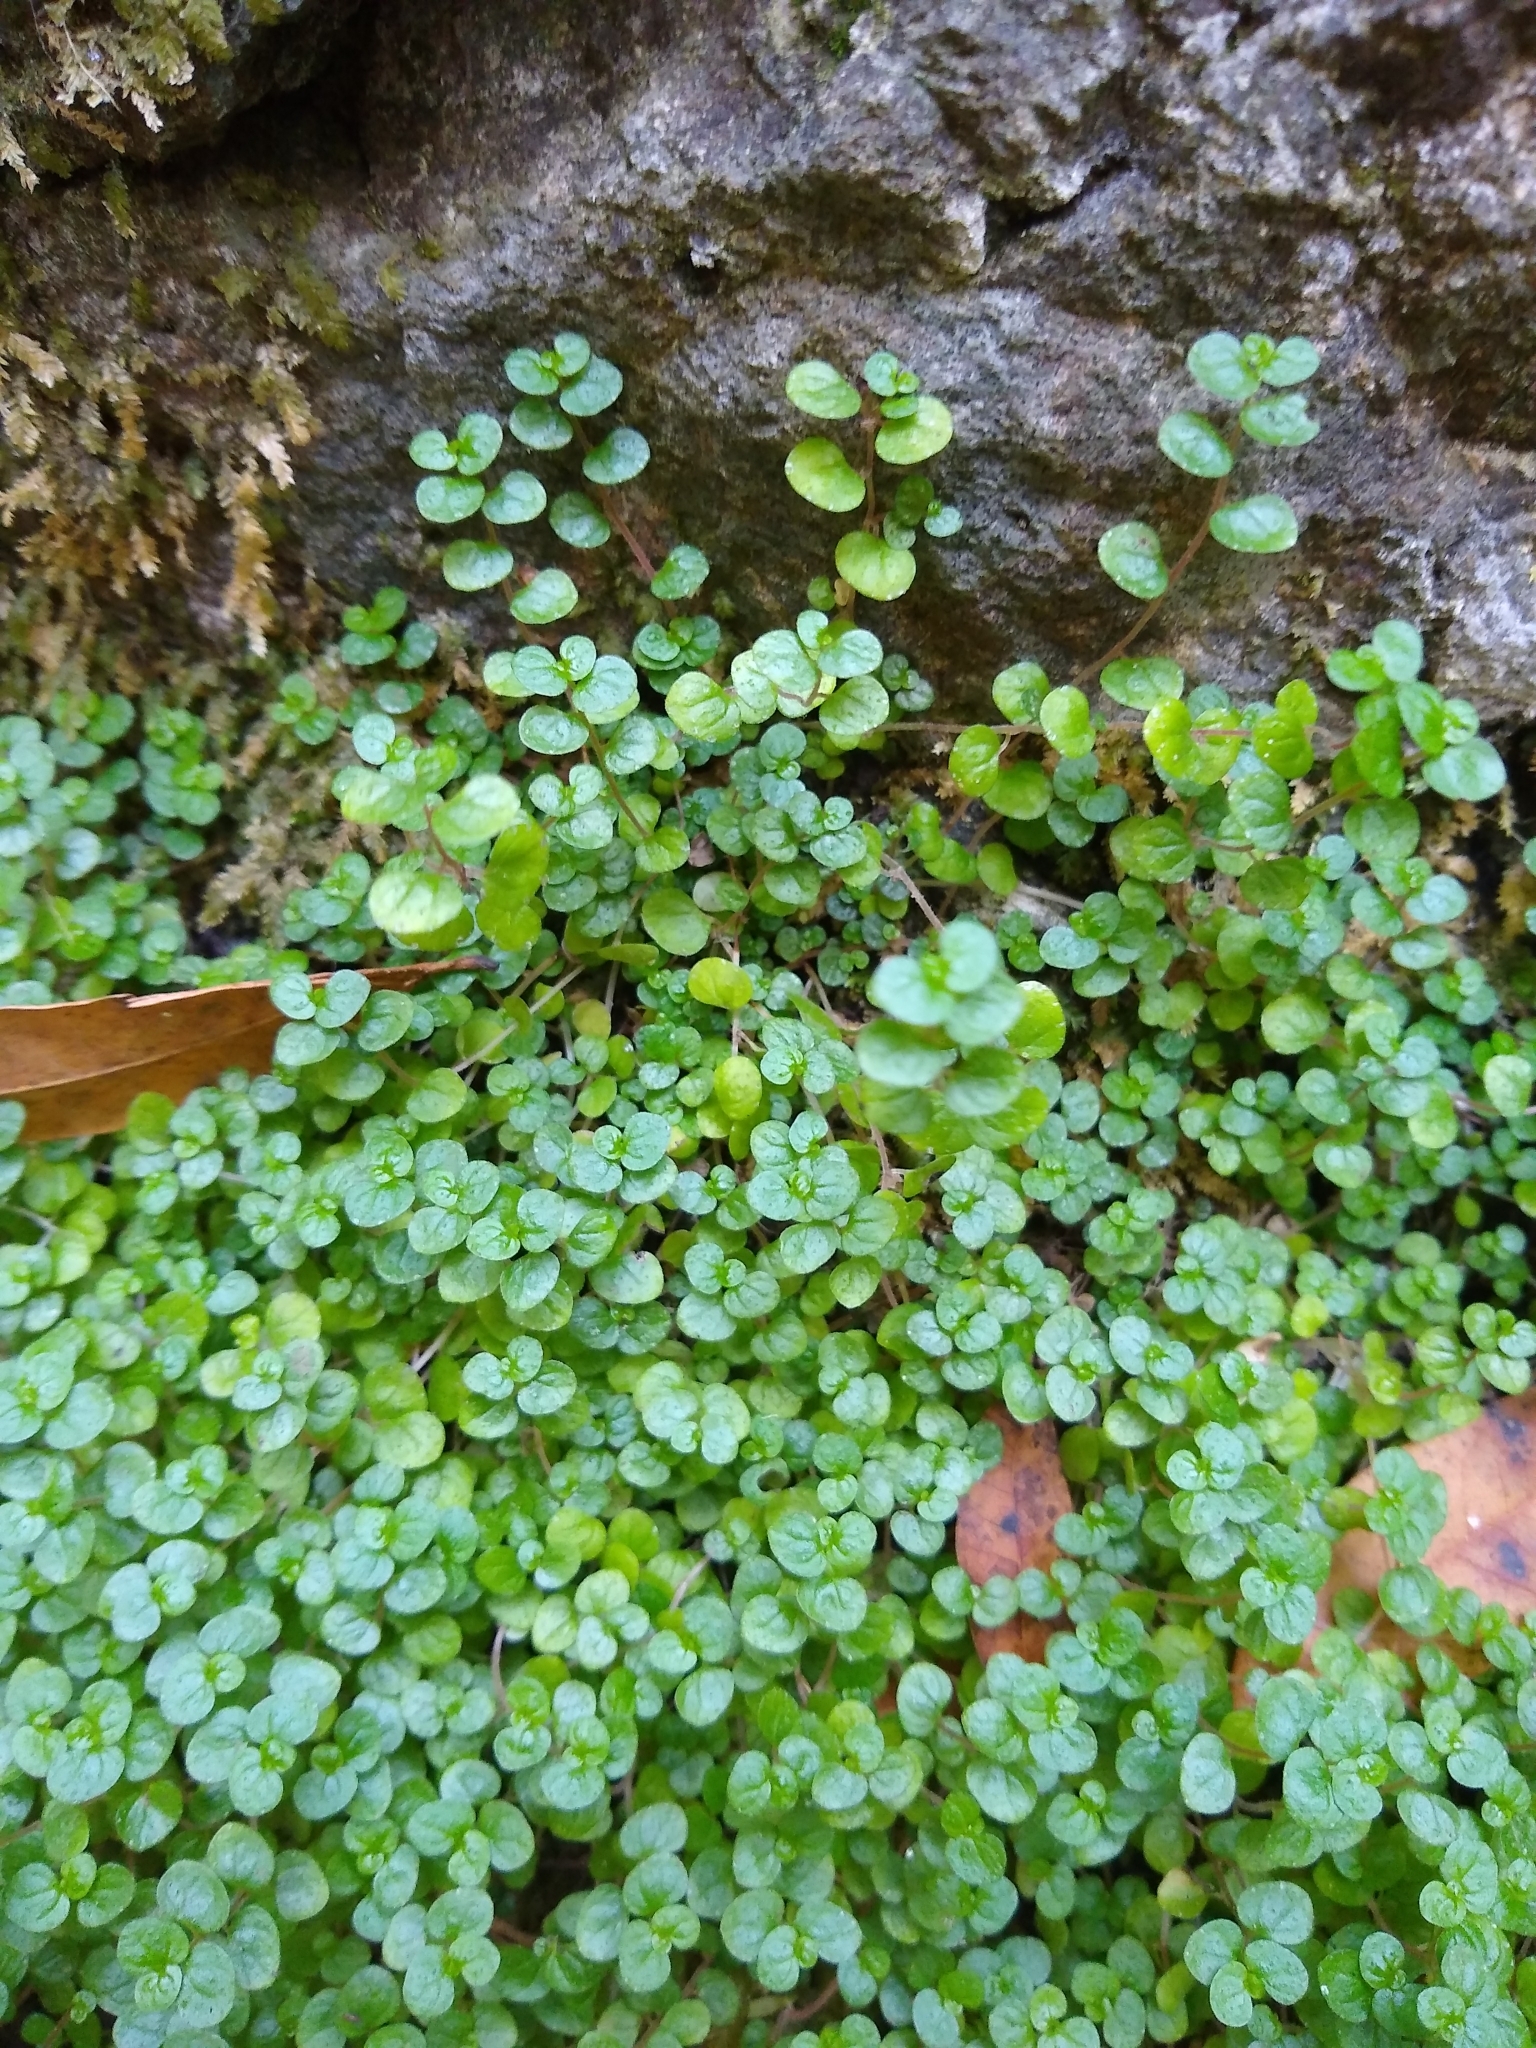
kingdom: Plantae
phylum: Tracheophyta
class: Magnoliopsida
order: Rosales
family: Urticaceae
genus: Soleirolia
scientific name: Soleirolia soleirolii
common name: Mind-your-own-business
